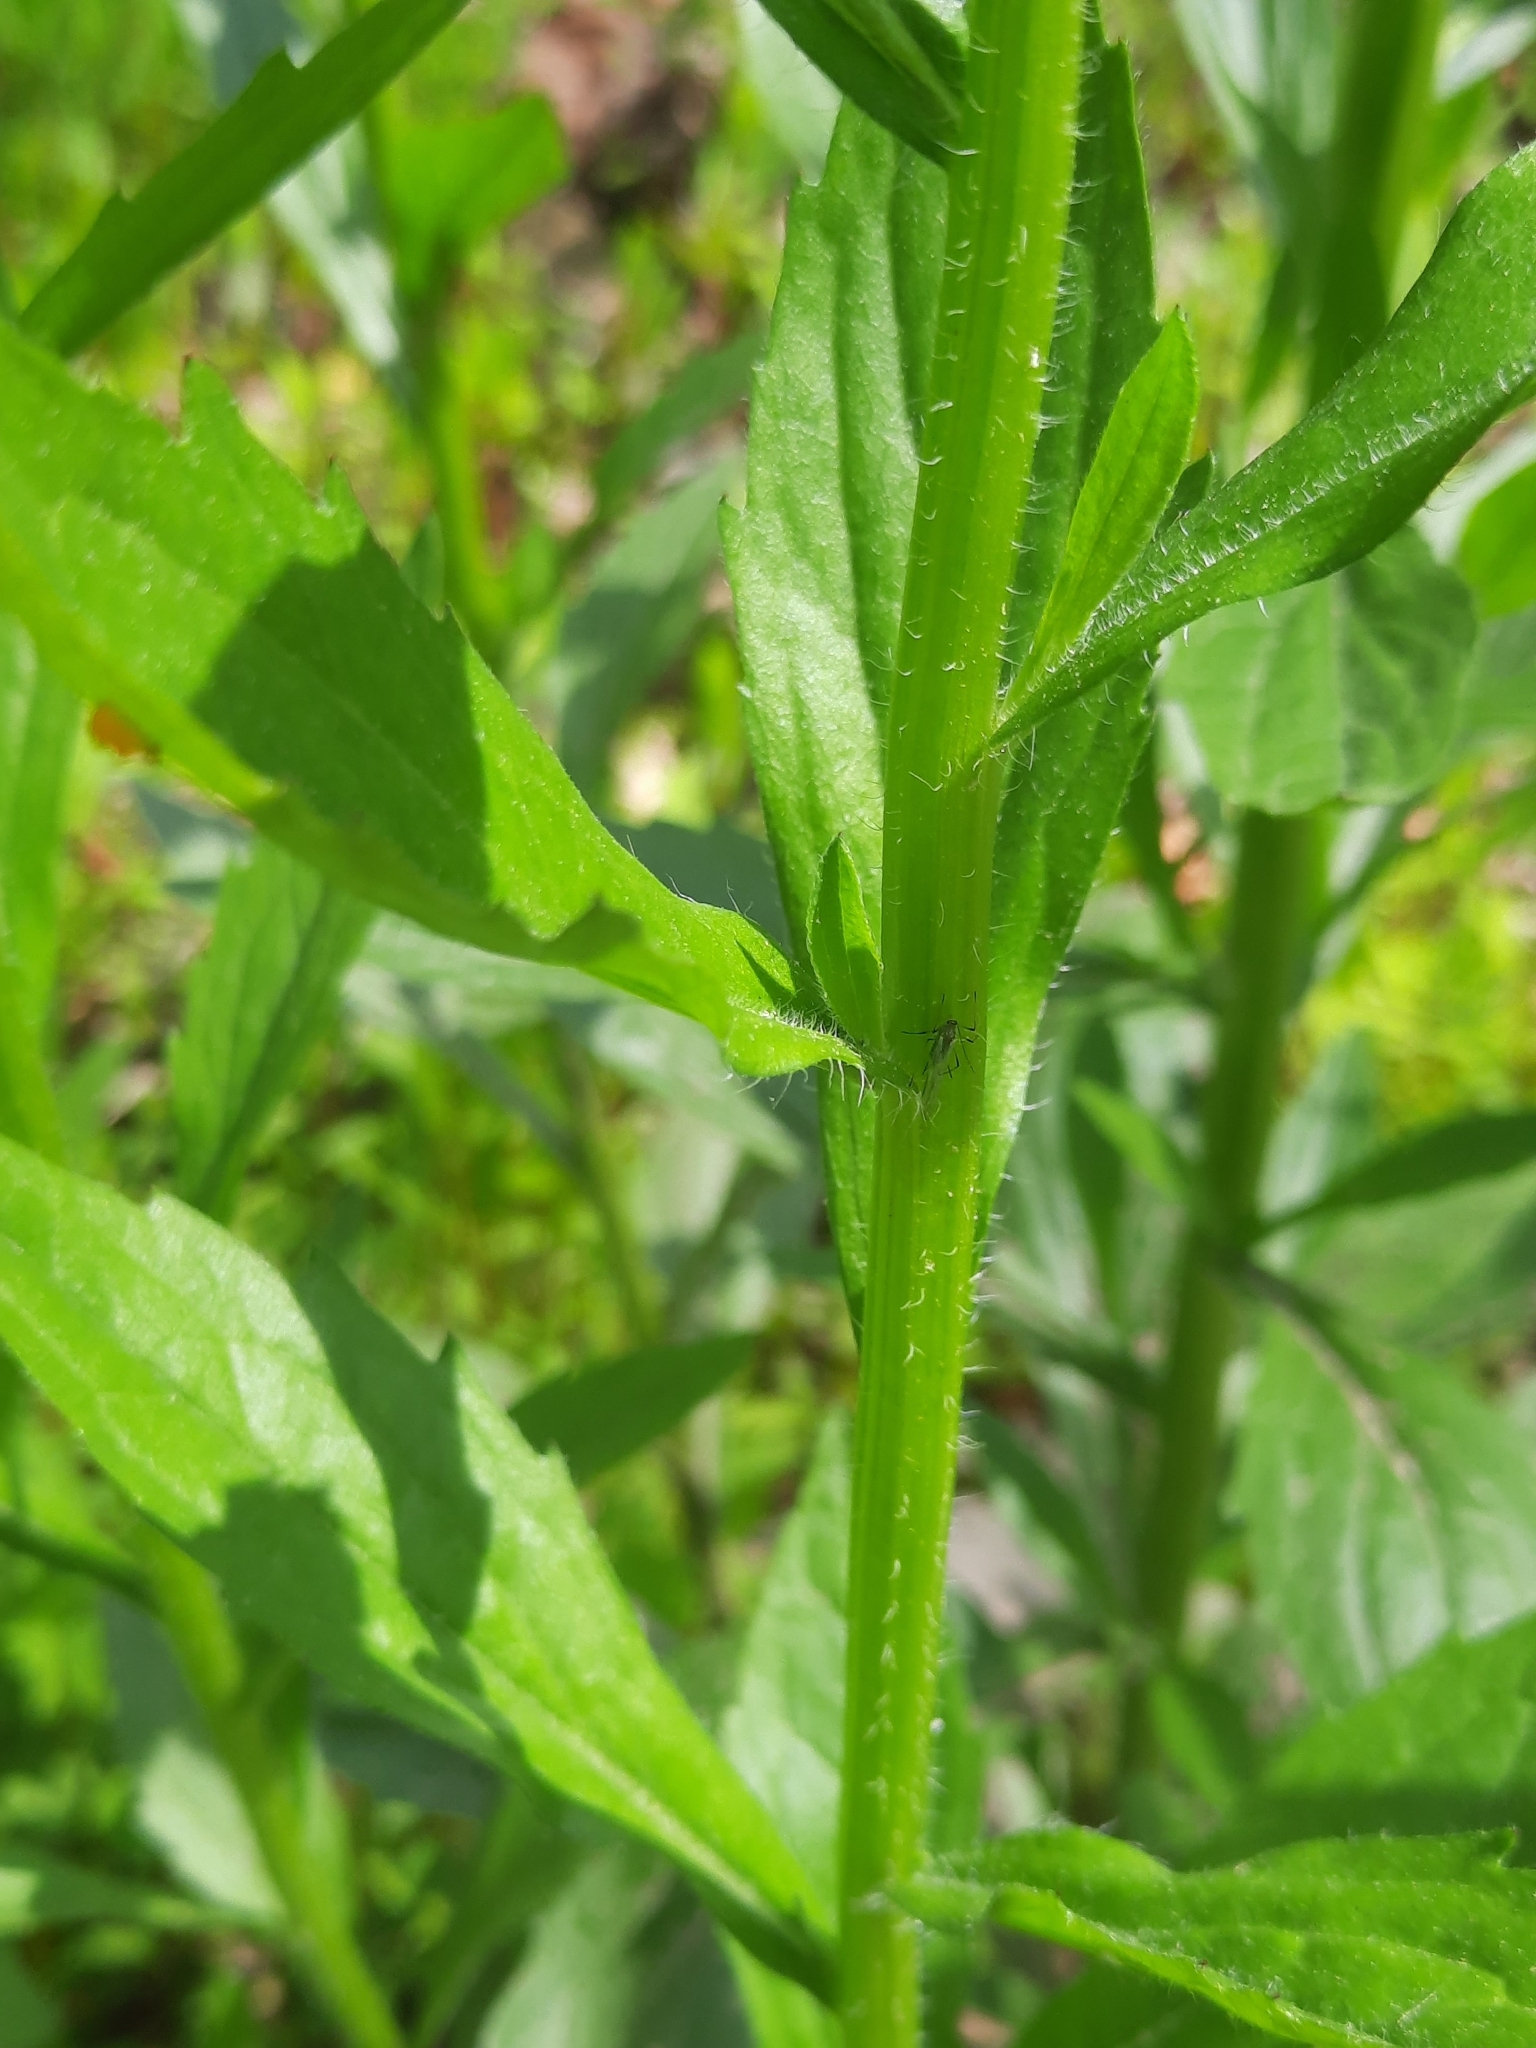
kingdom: Plantae
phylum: Tracheophyta
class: Magnoliopsida
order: Asterales
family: Asteraceae
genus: Erigeron
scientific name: Erigeron annuus
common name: Tall fleabane
